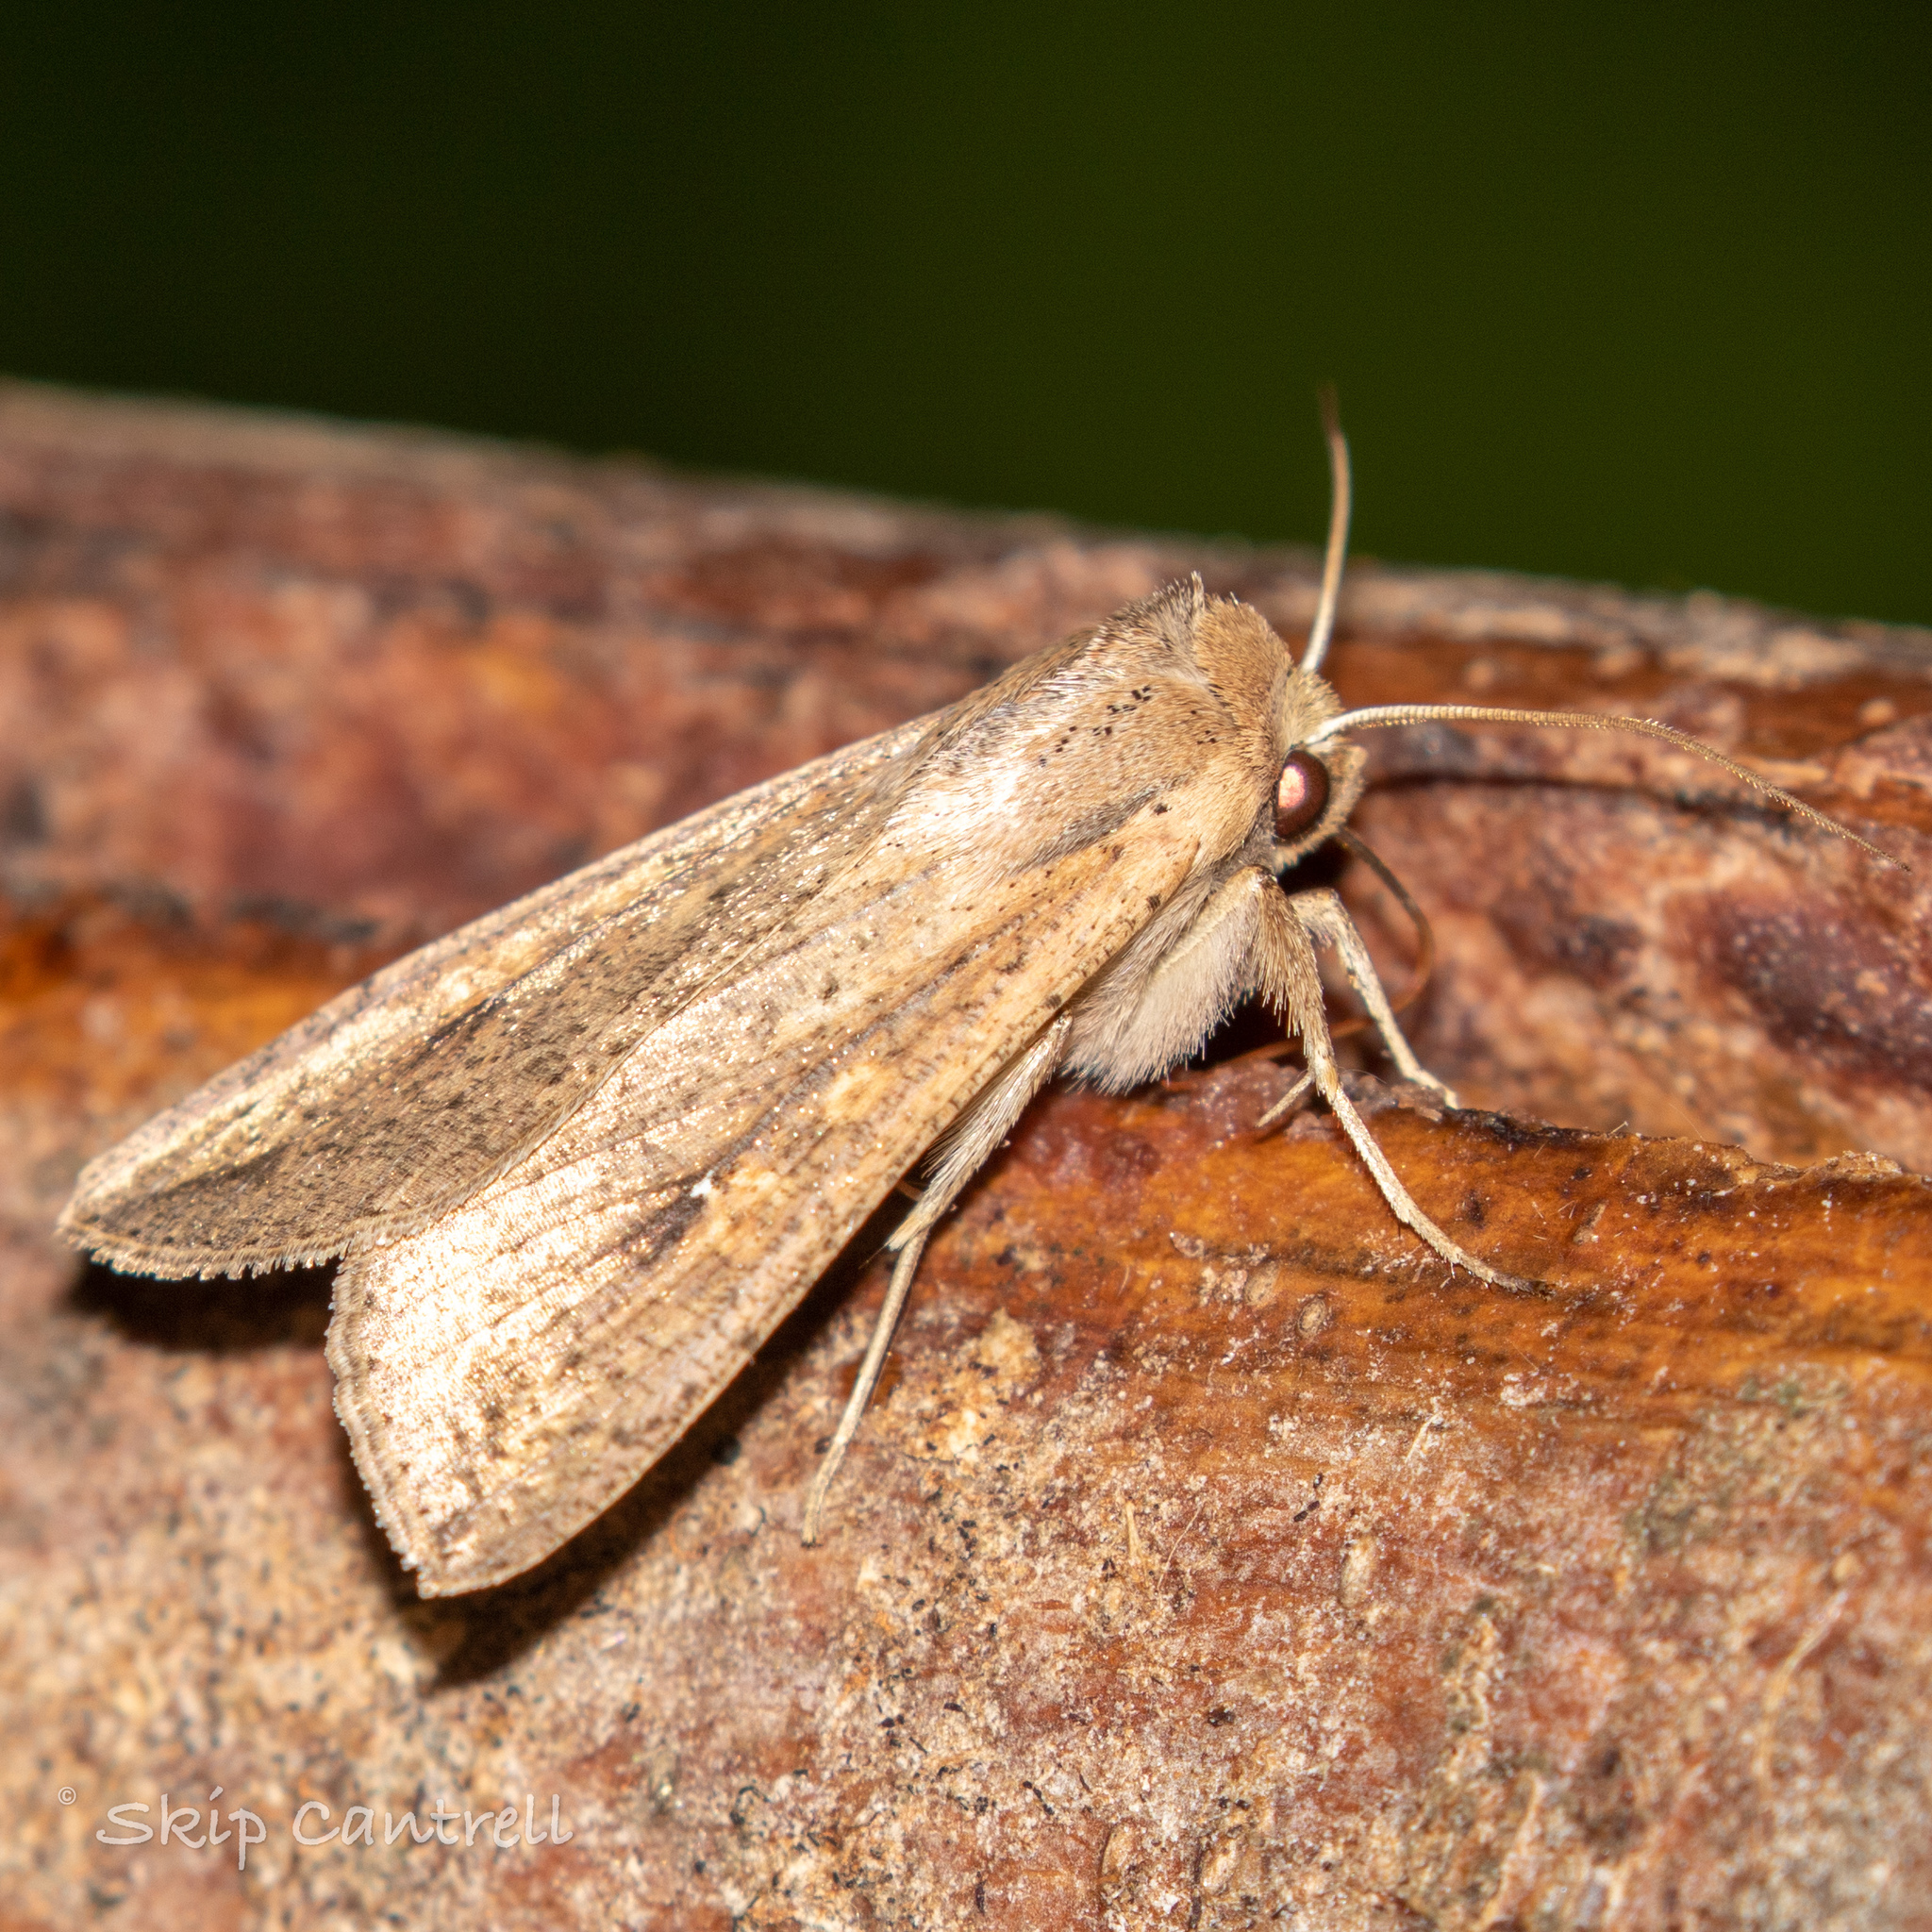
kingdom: Animalia
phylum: Arthropoda
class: Insecta
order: Lepidoptera
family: Noctuidae
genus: Mythimna
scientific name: Mythimna unipuncta
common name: White-speck
